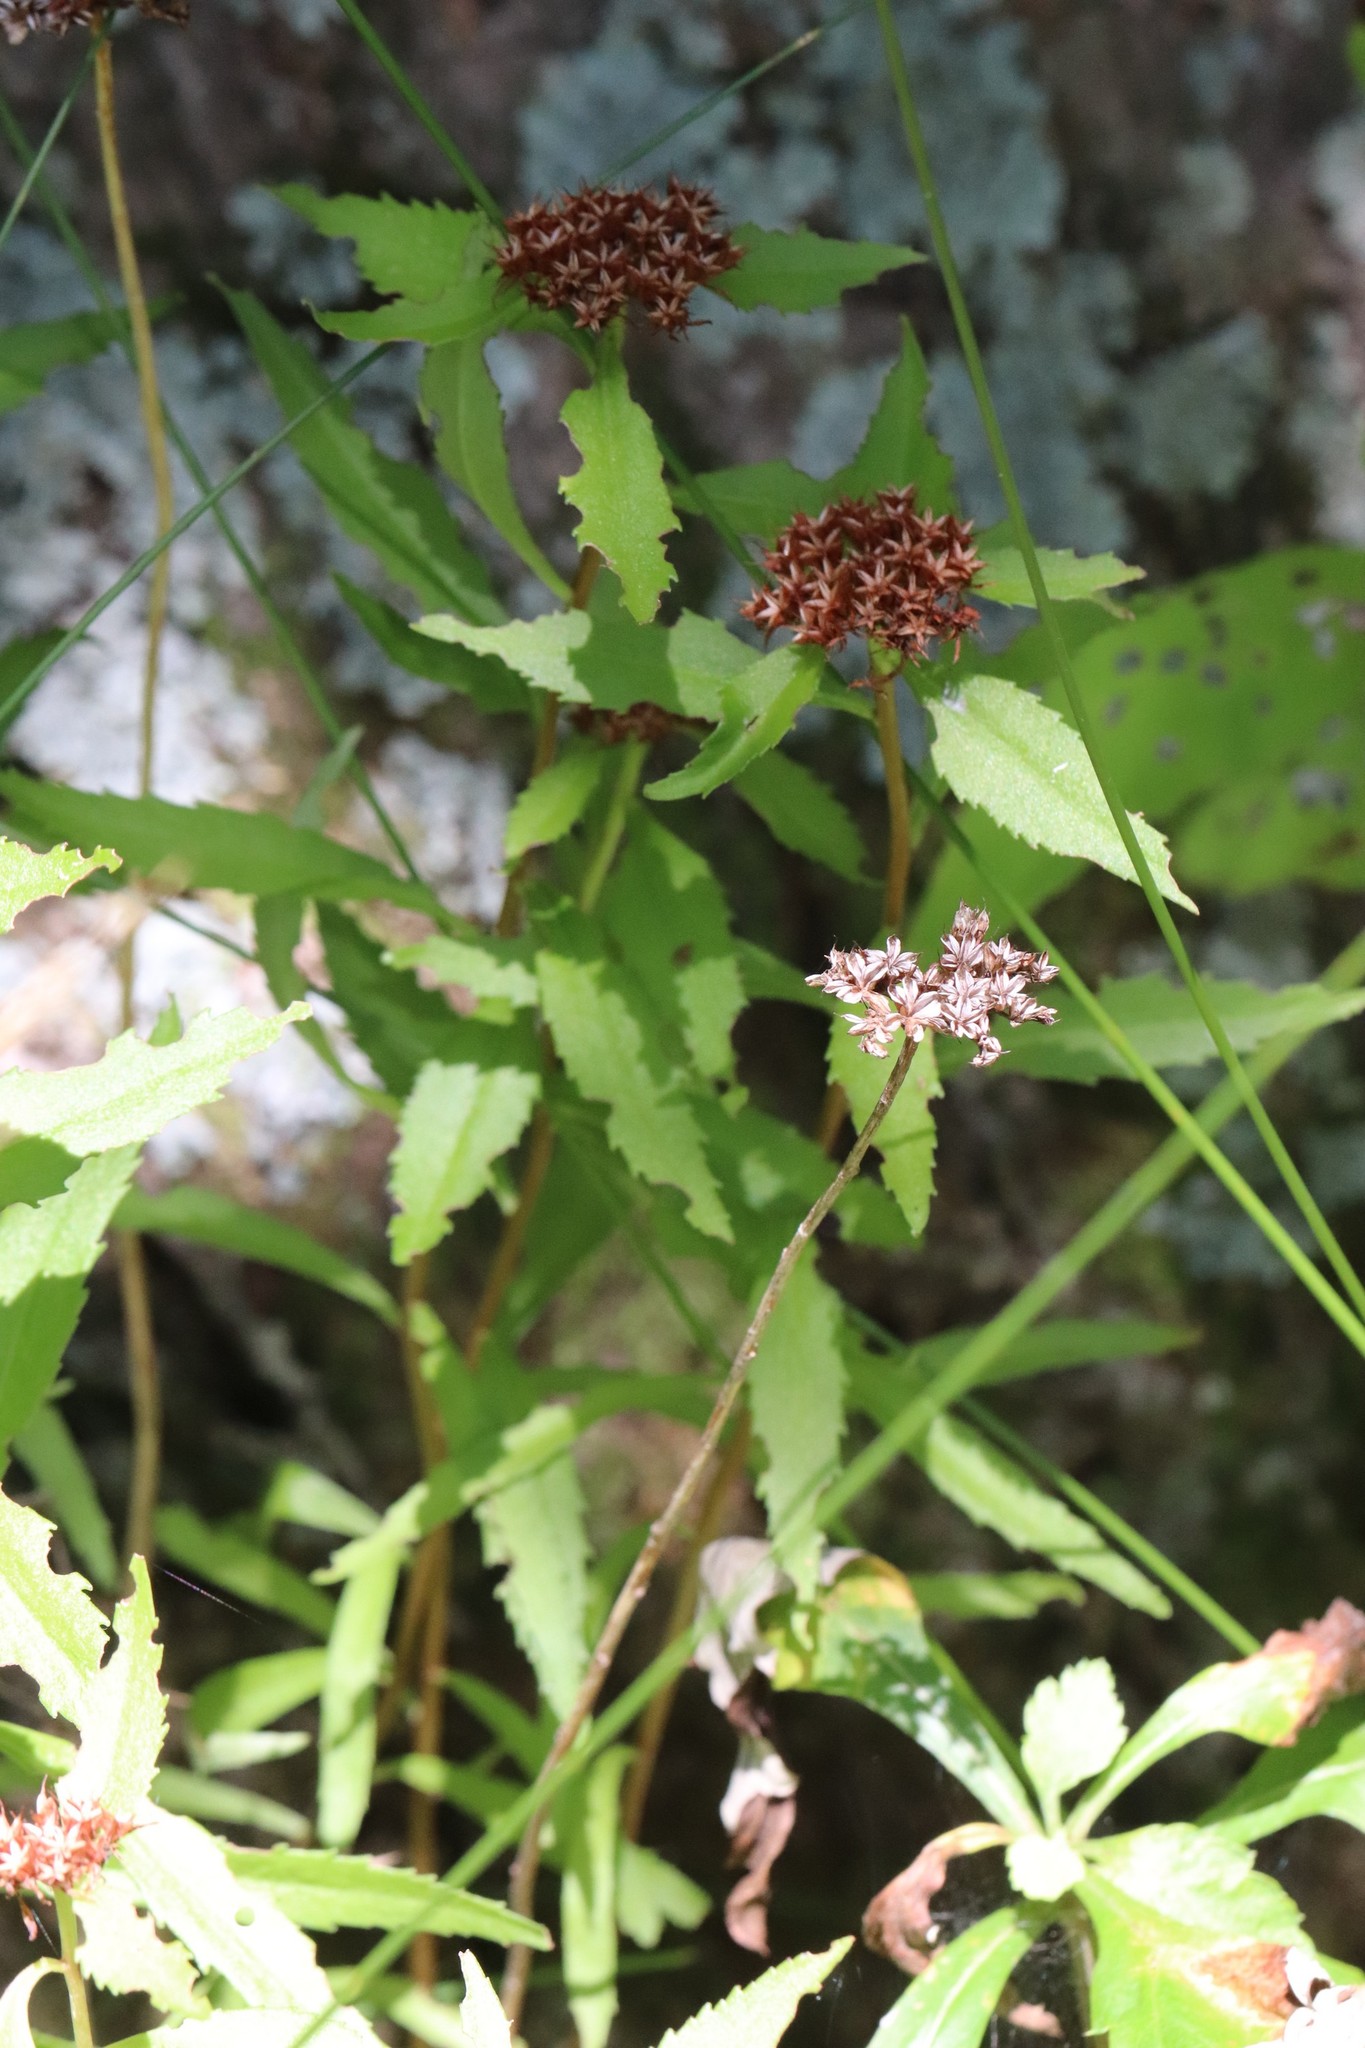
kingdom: Plantae
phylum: Tracheophyta
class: Magnoliopsida
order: Saxifragales
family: Crassulaceae
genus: Phedimus
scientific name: Phedimus aizoon
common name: Orpin aizoon
